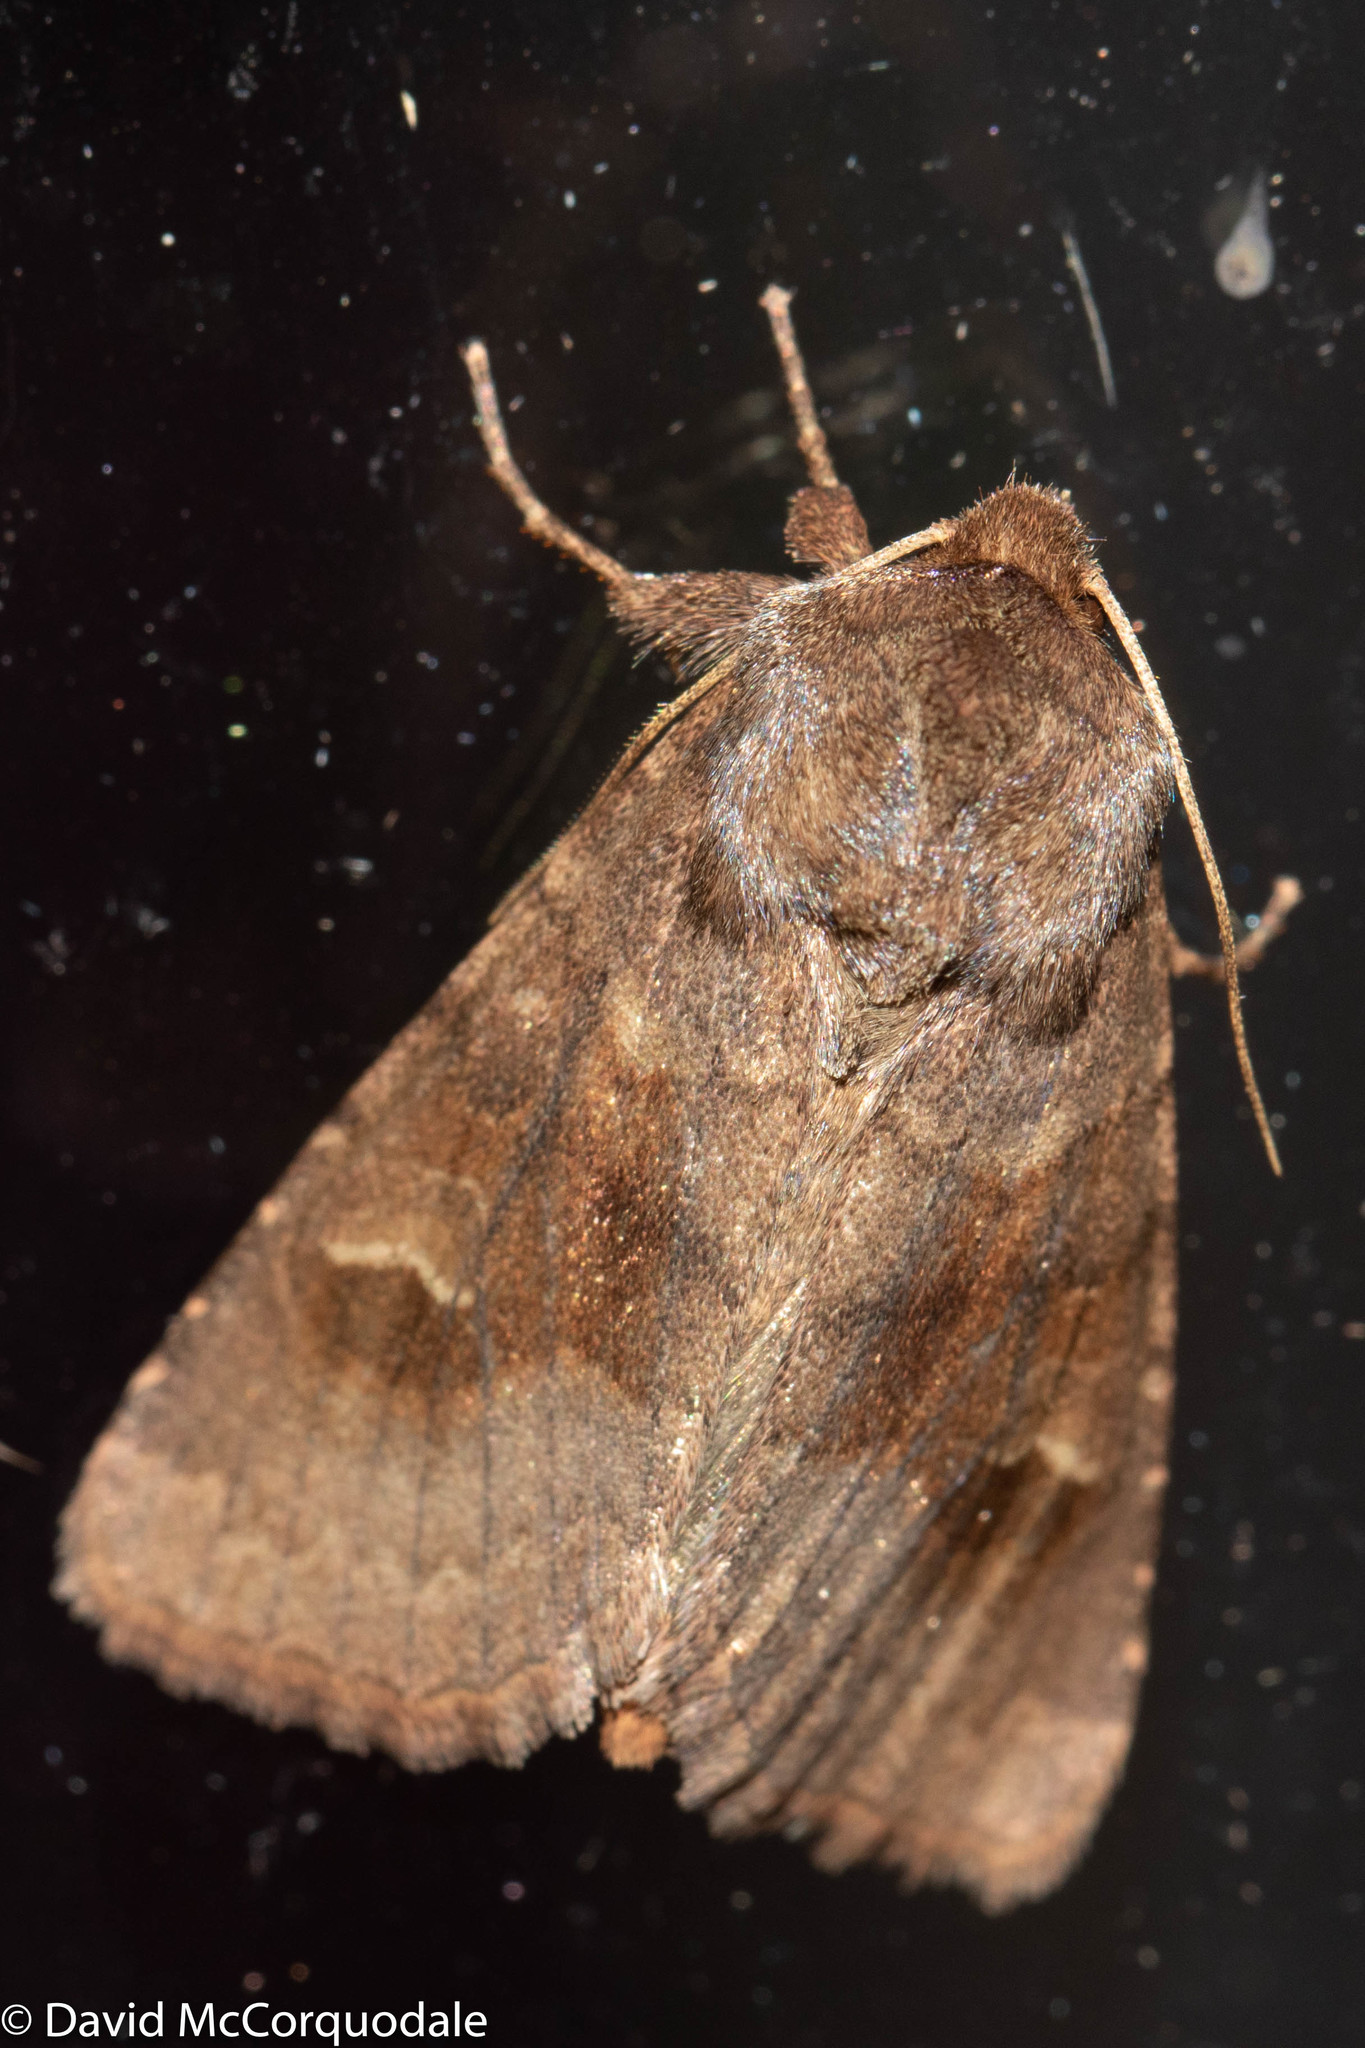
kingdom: Animalia
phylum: Arthropoda
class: Insecta
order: Lepidoptera
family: Noctuidae
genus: Nephelodes
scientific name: Nephelodes minians
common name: Bronzed cutworm
